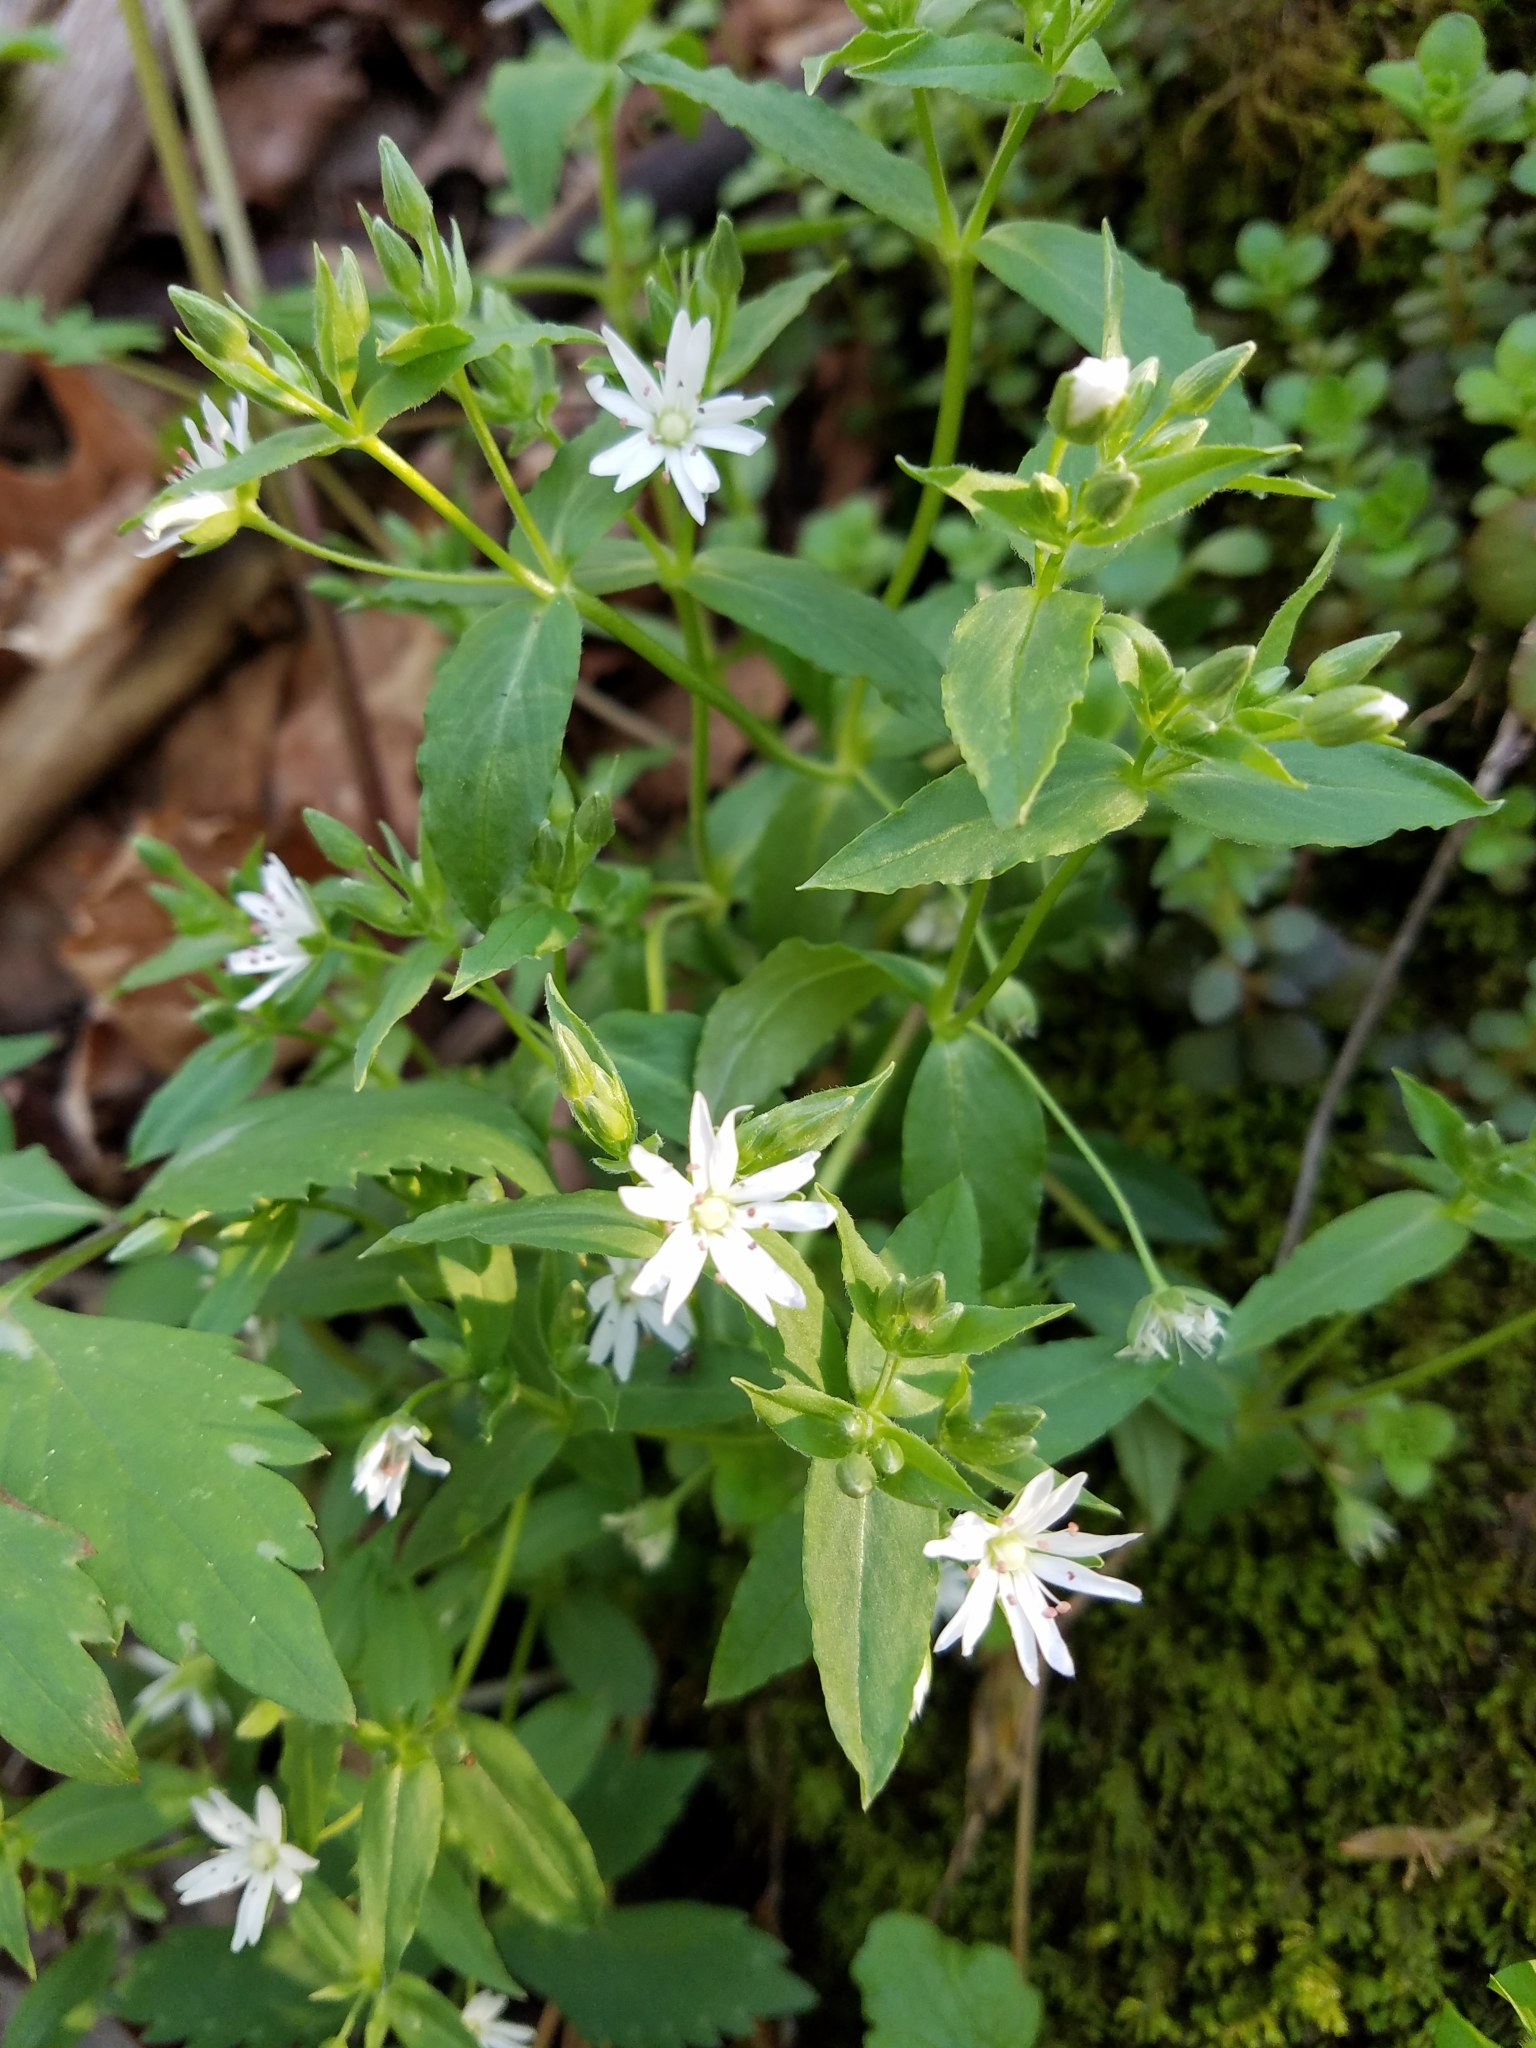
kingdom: Plantae
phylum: Tracheophyta
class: Magnoliopsida
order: Caryophyllales
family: Caryophyllaceae
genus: Stellaria
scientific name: Stellaria pubera
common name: Star chickweed
